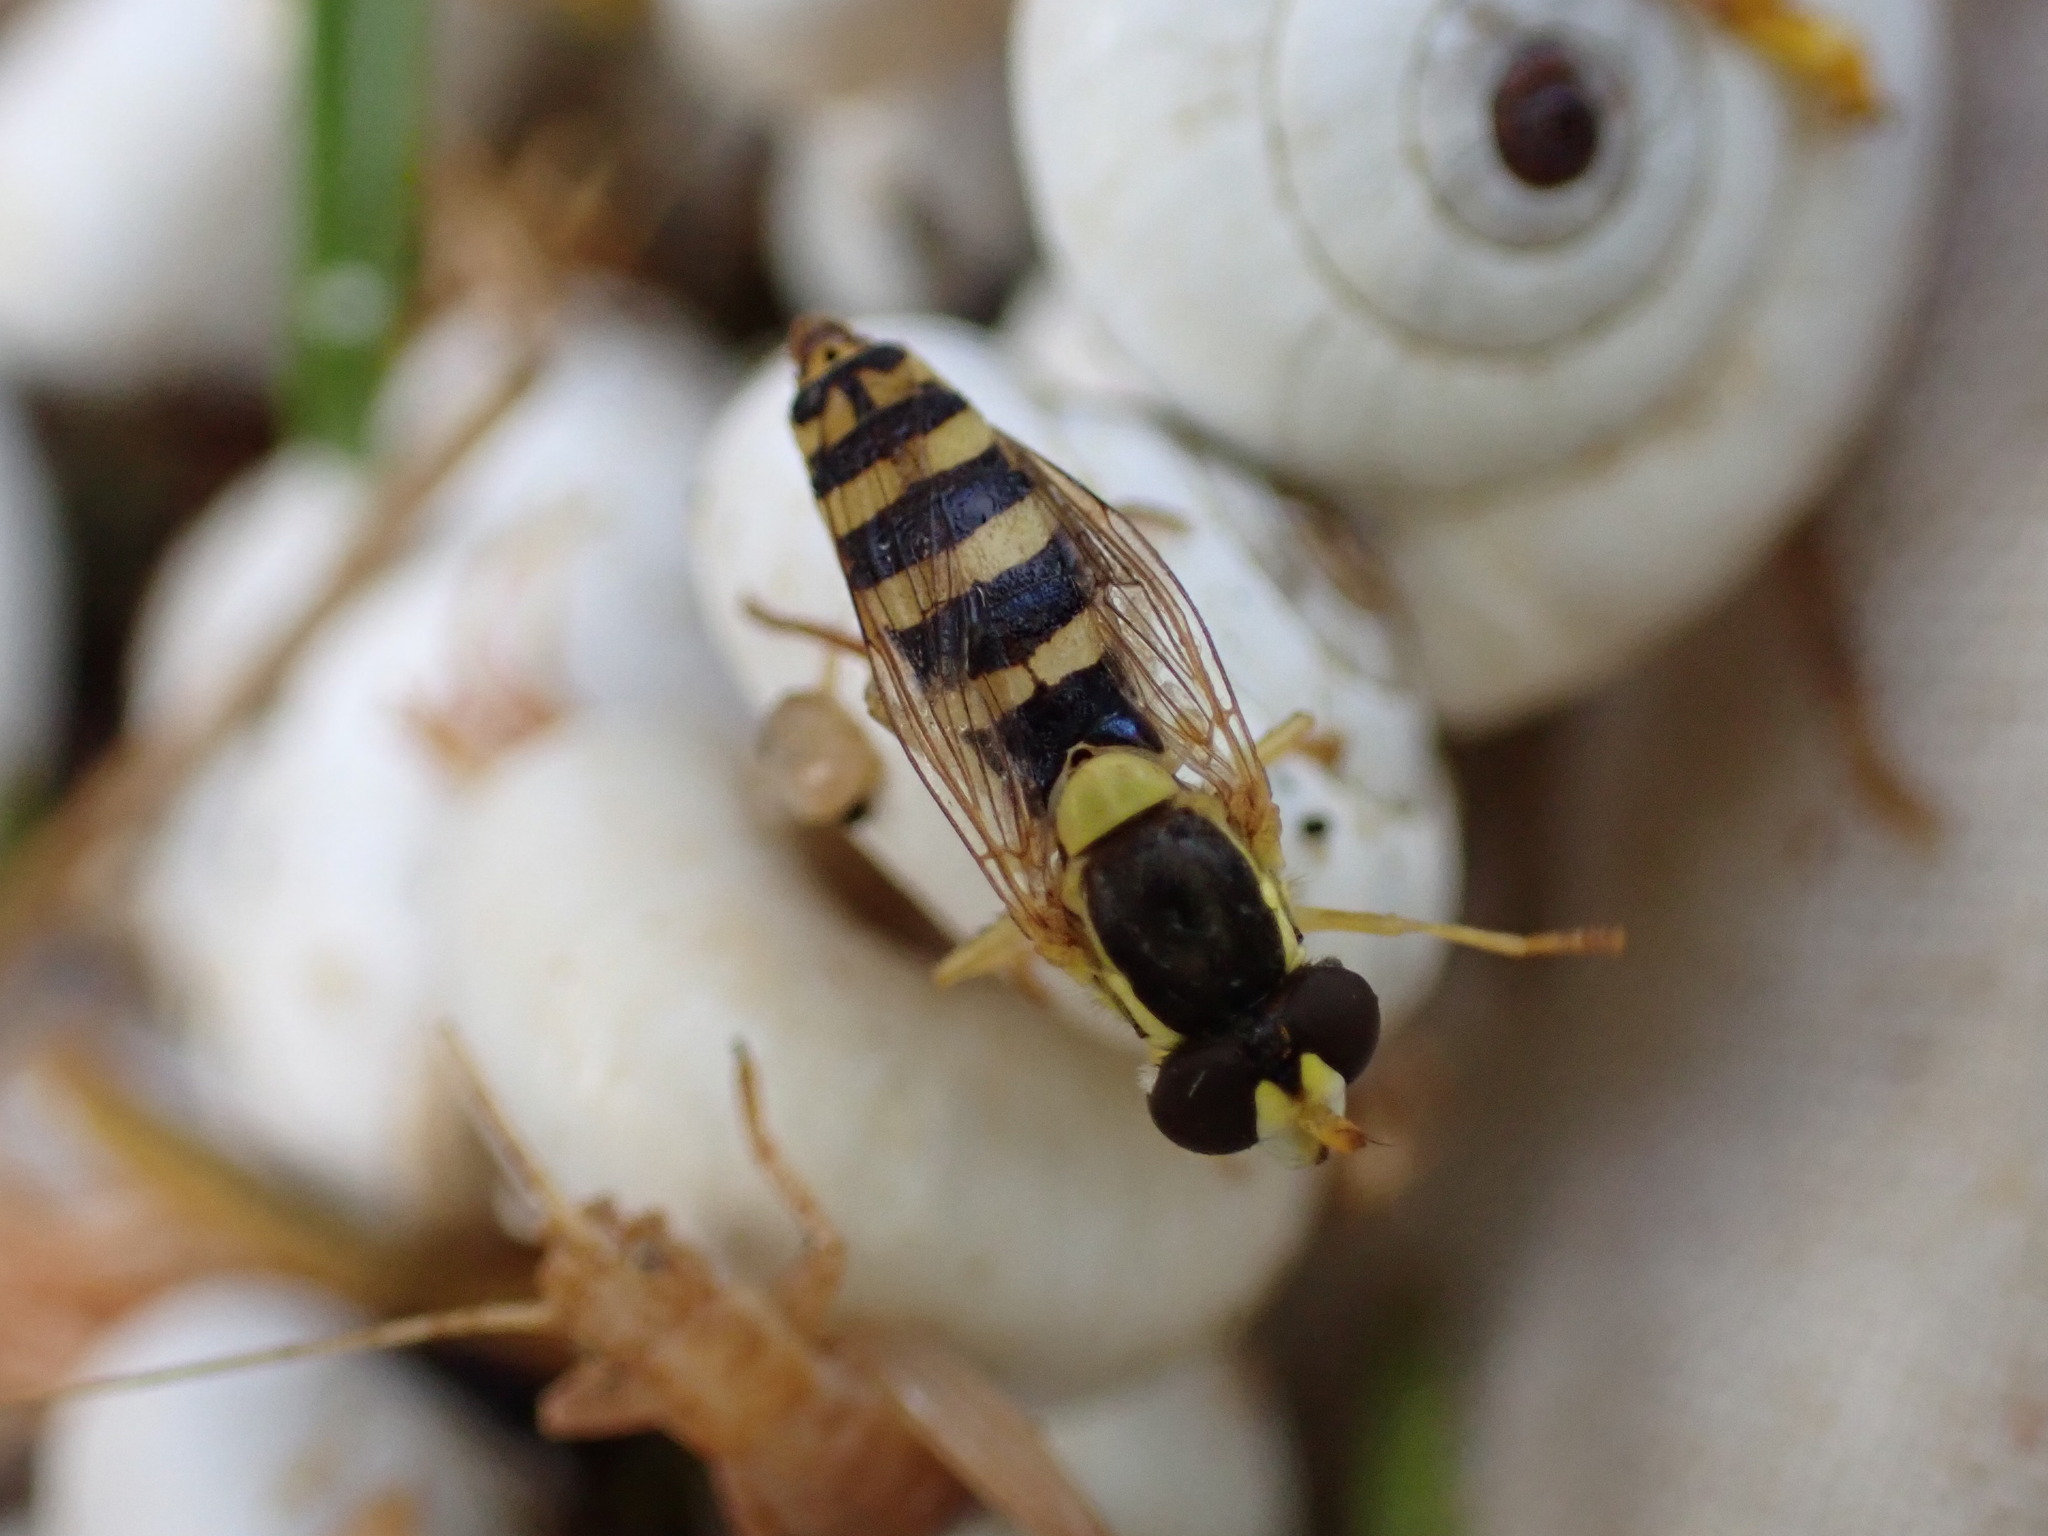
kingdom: Animalia
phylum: Arthropoda
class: Insecta
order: Diptera
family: Syrphidae
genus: Sphaerophoria
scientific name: Sphaerophoria
